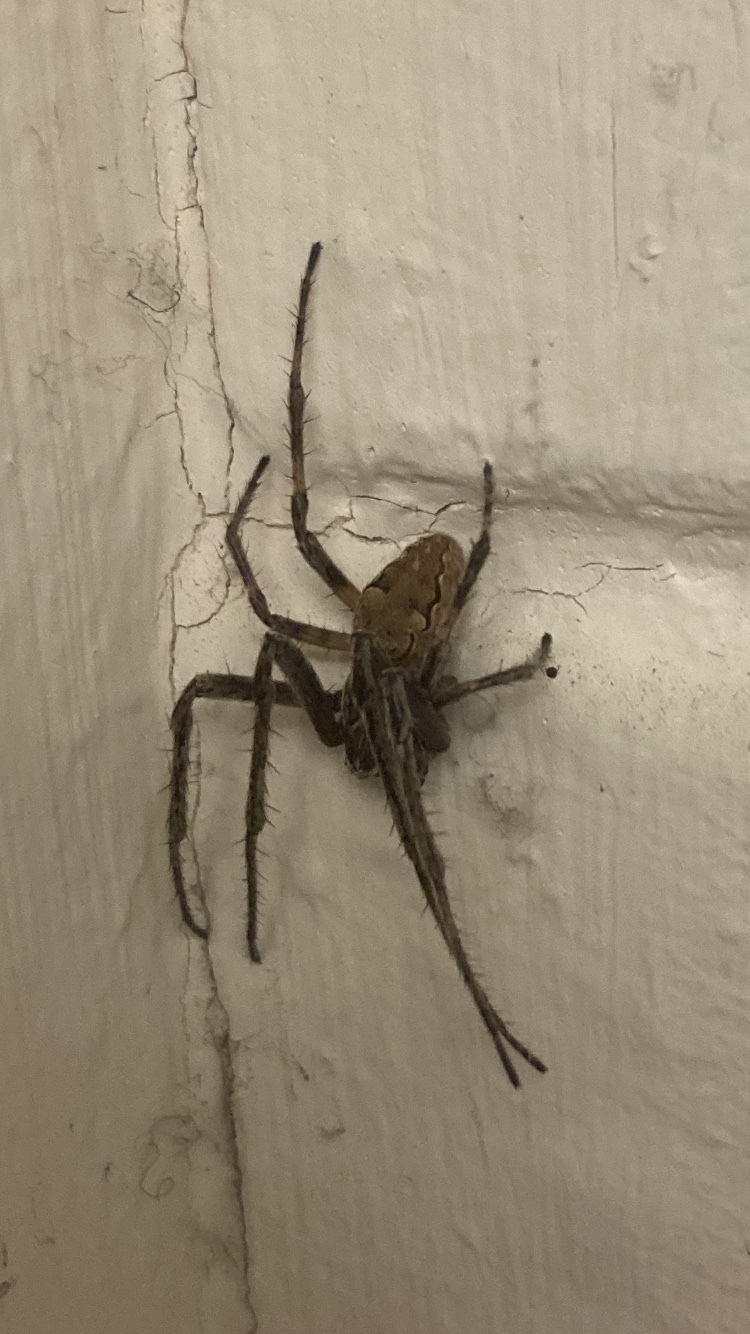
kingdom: Animalia
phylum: Arthropoda
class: Arachnida
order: Araneae
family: Araneidae
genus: Larinioides
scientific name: Larinioides sclopetarius
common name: Bridge orbweaver
